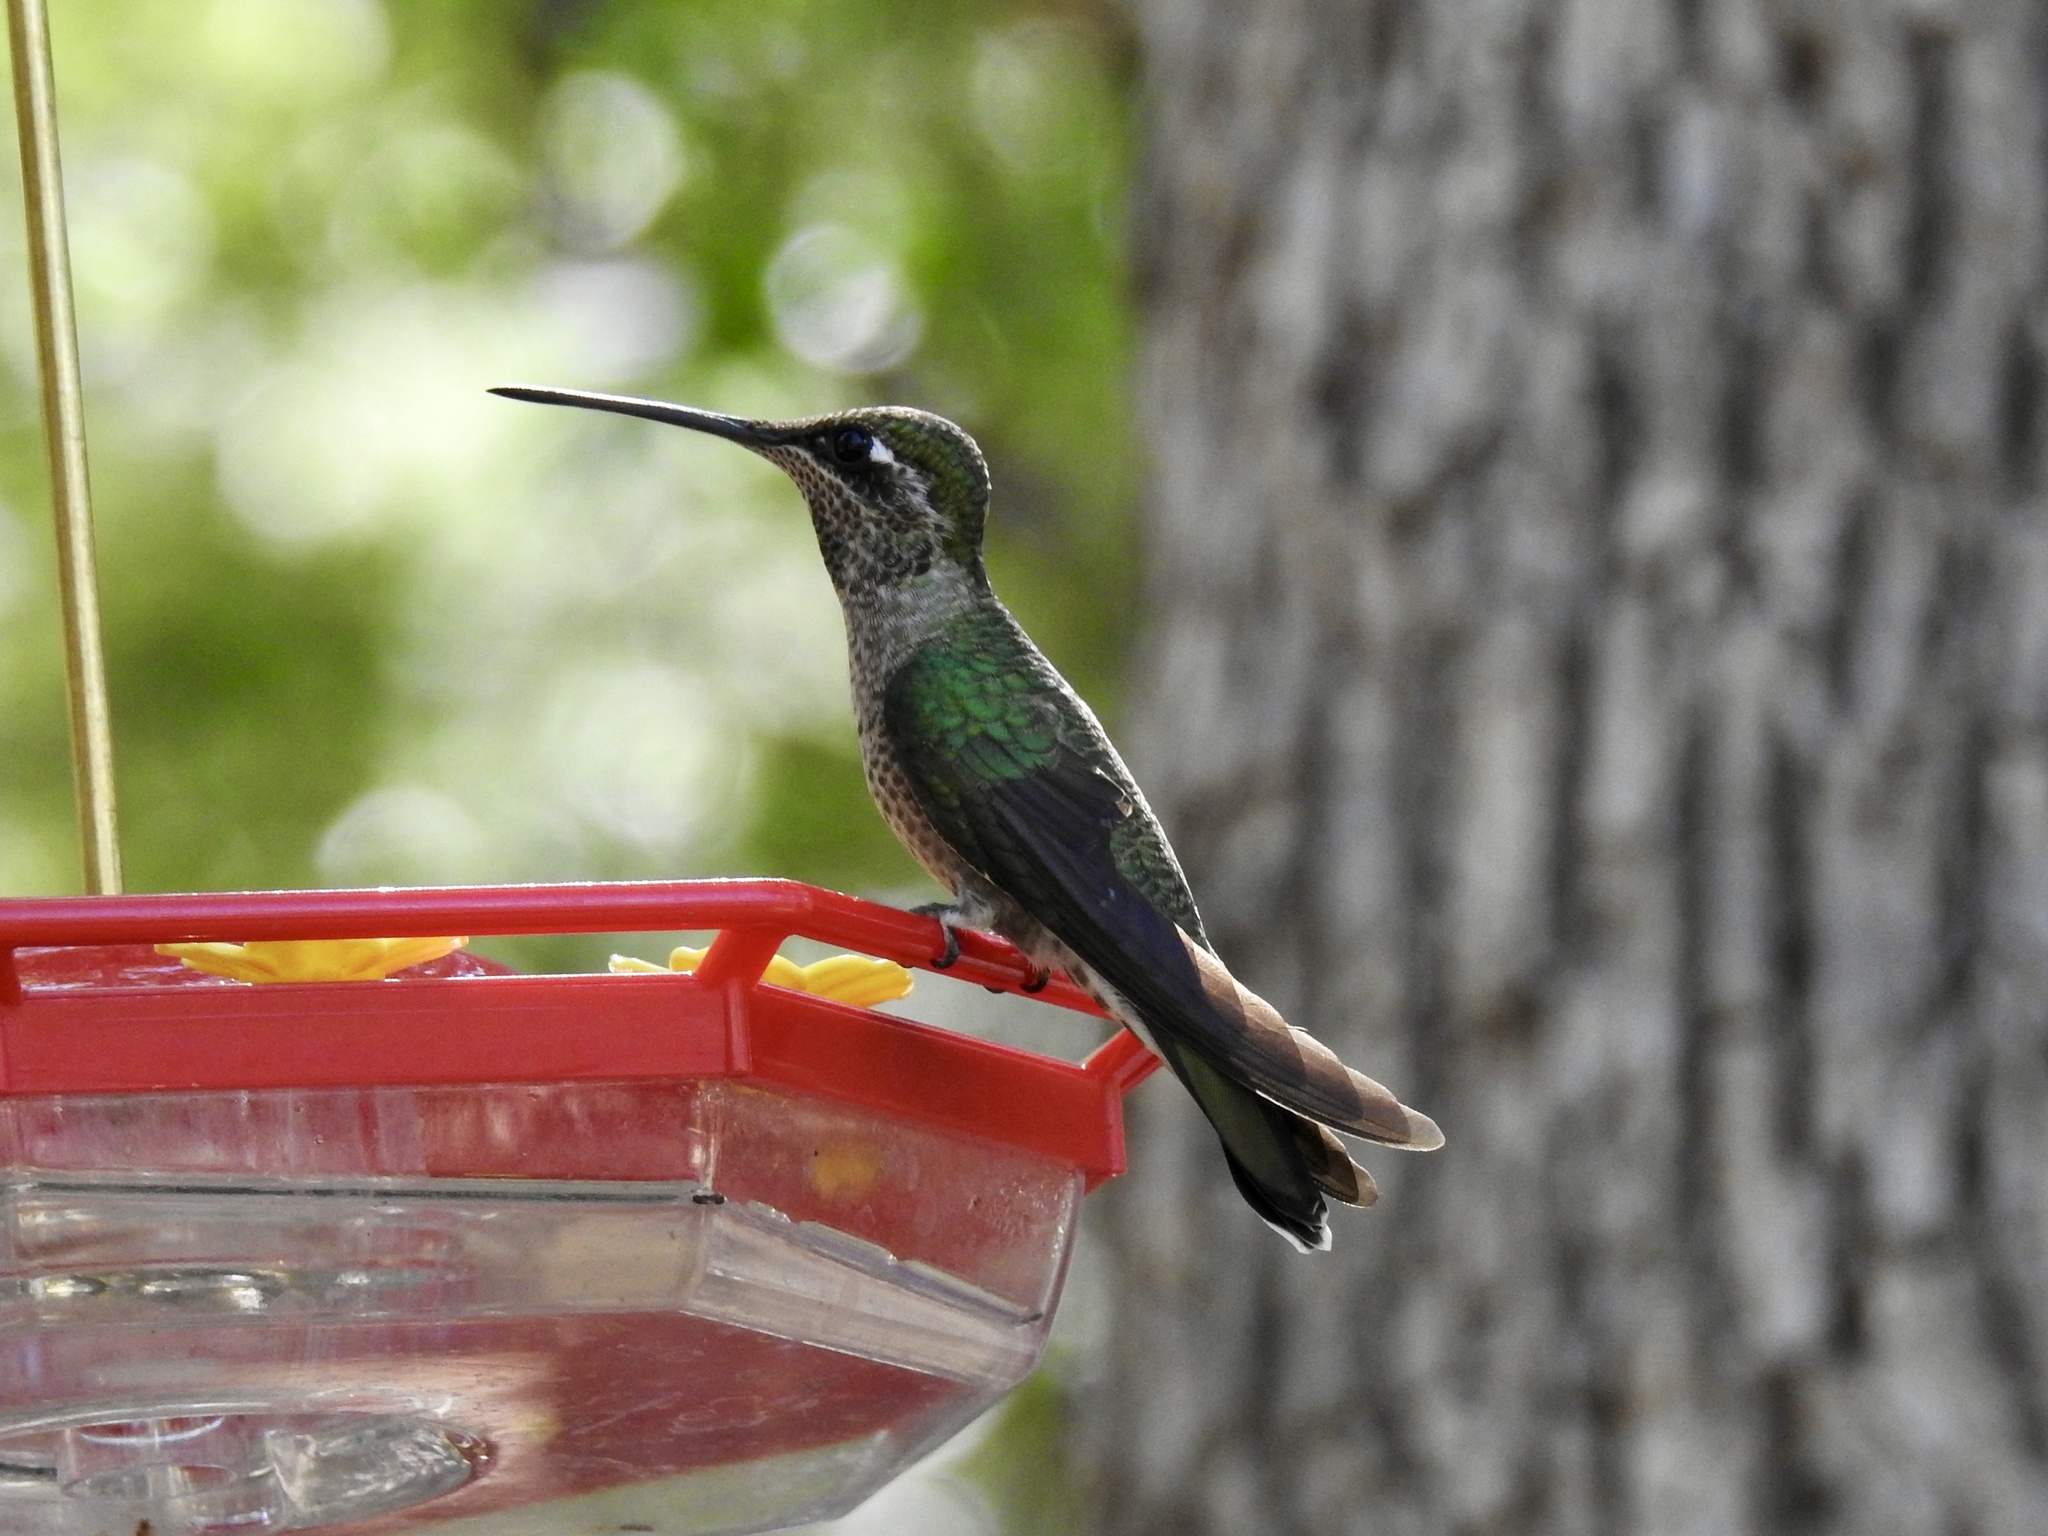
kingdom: Animalia
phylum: Chordata
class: Aves
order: Apodiformes
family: Trochilidae
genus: Eugenes
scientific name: Eugenes fulgens
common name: Magnificent hummingbird
